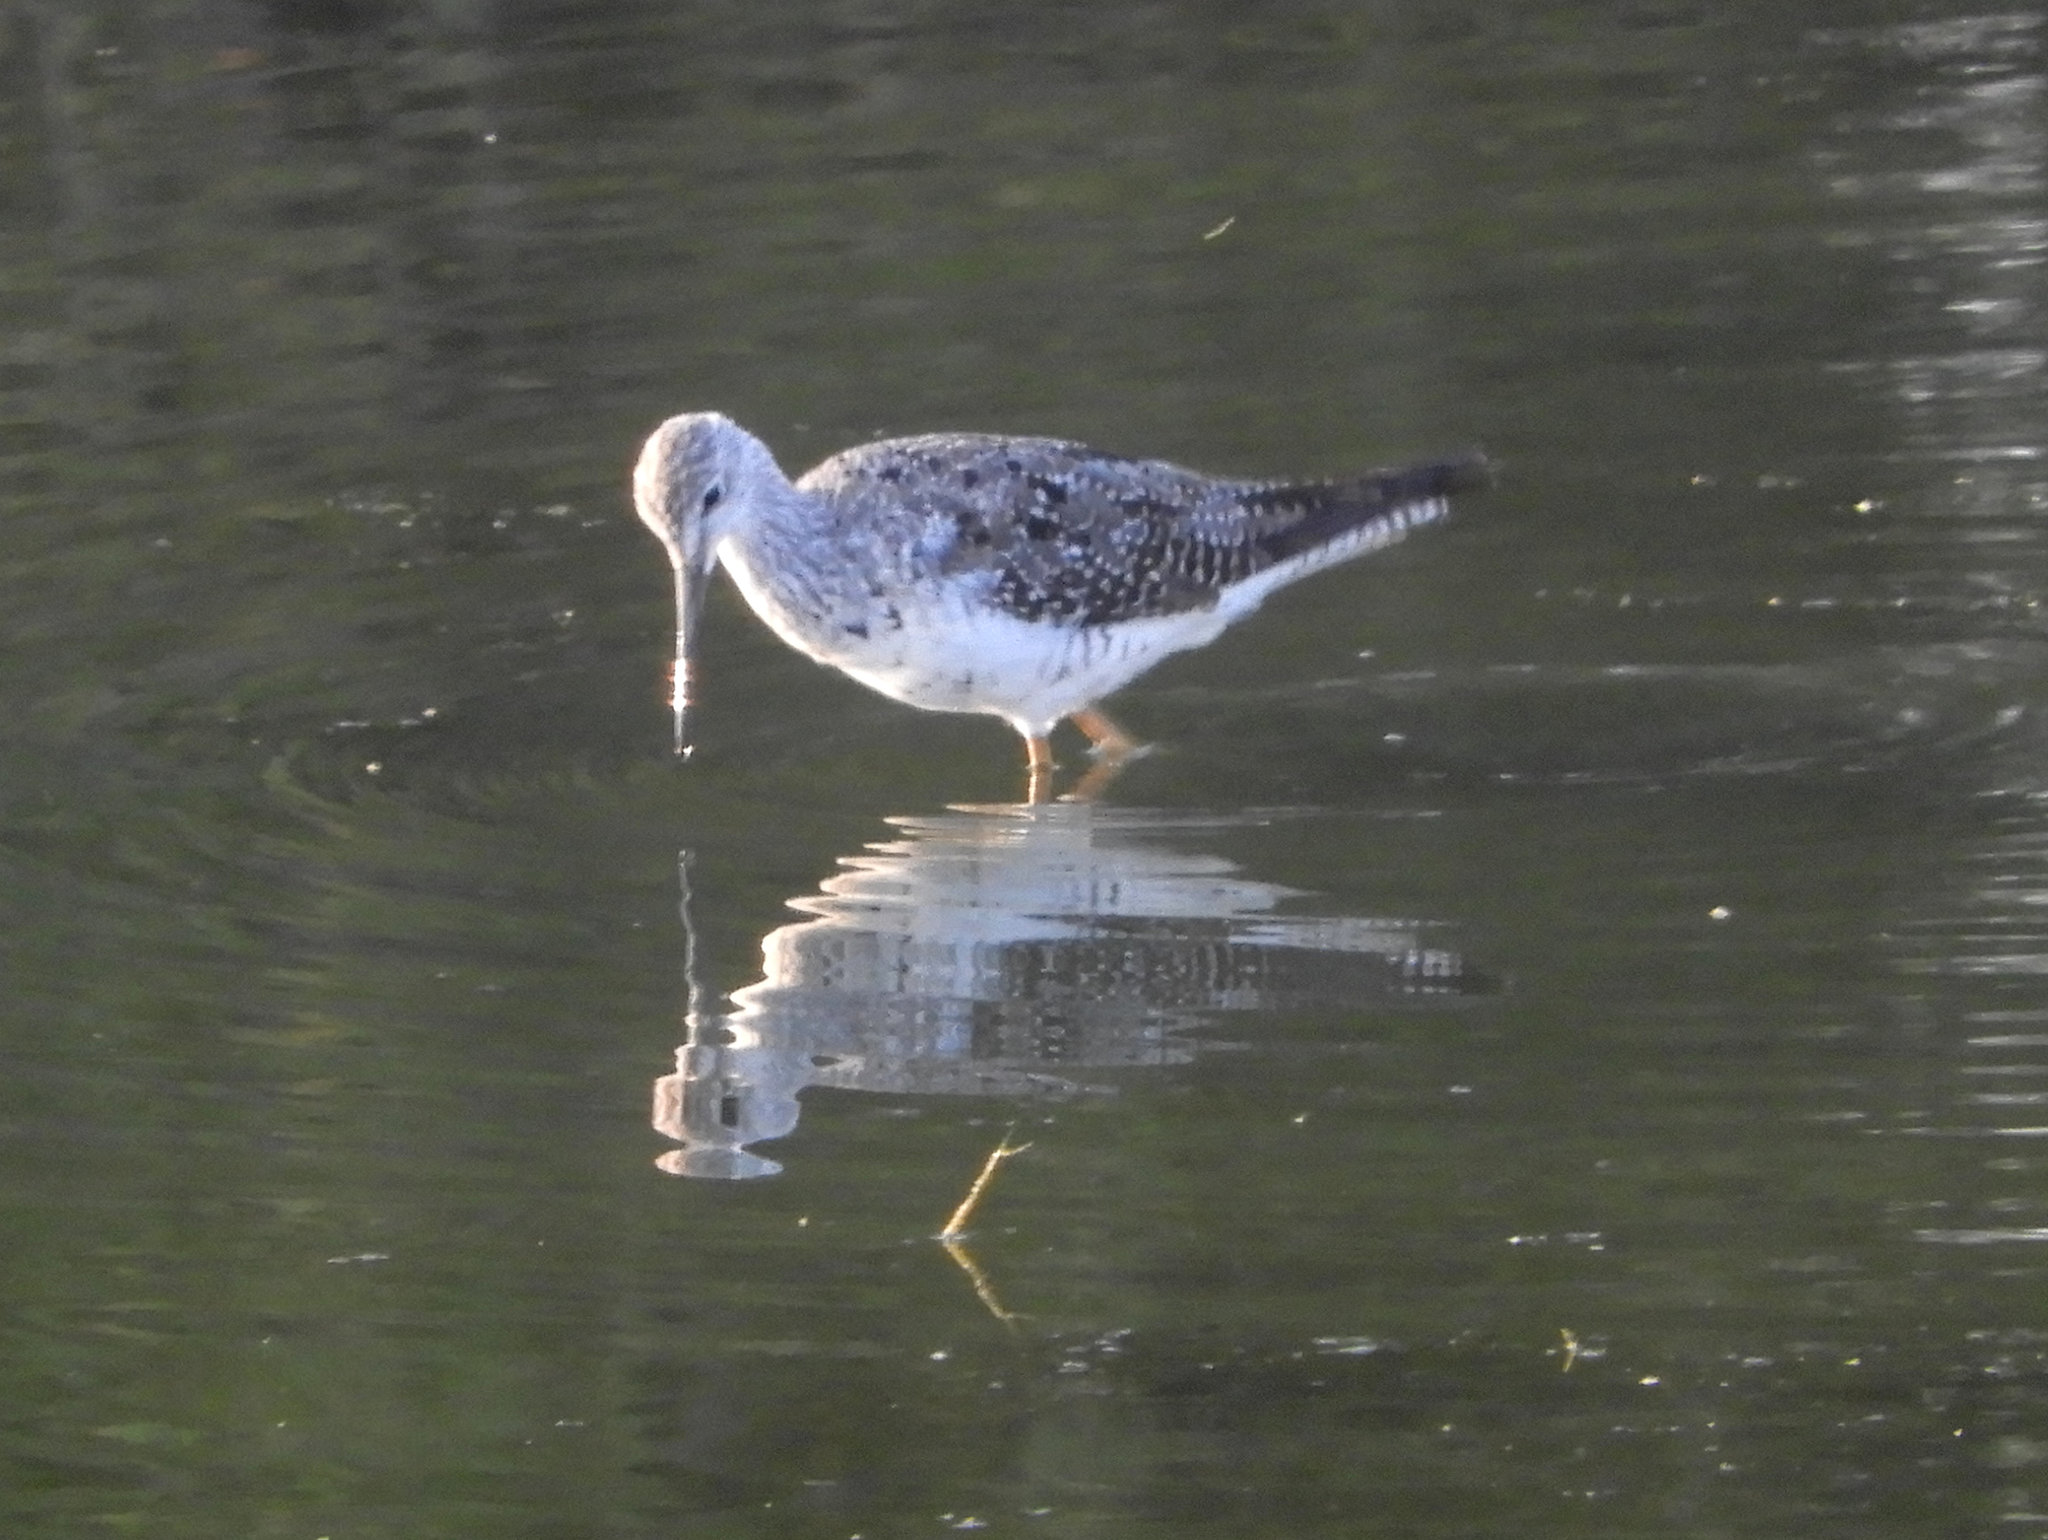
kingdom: Animalia
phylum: Chordata
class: Aves
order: Charadriiformes
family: Scolopacidae
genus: Tringa
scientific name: Tringa melanoleuca
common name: Greater yellowlegs
